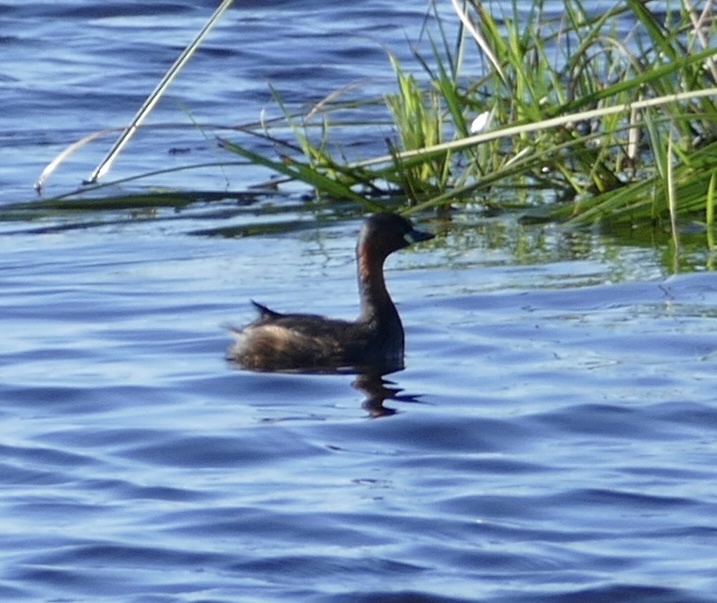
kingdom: Animalia
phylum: Chordata
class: Aves
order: Podicipediformes
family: Podicipedidae
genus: Tachybaptus
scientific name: Tachybaptus ruficollis
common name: Little grebe
